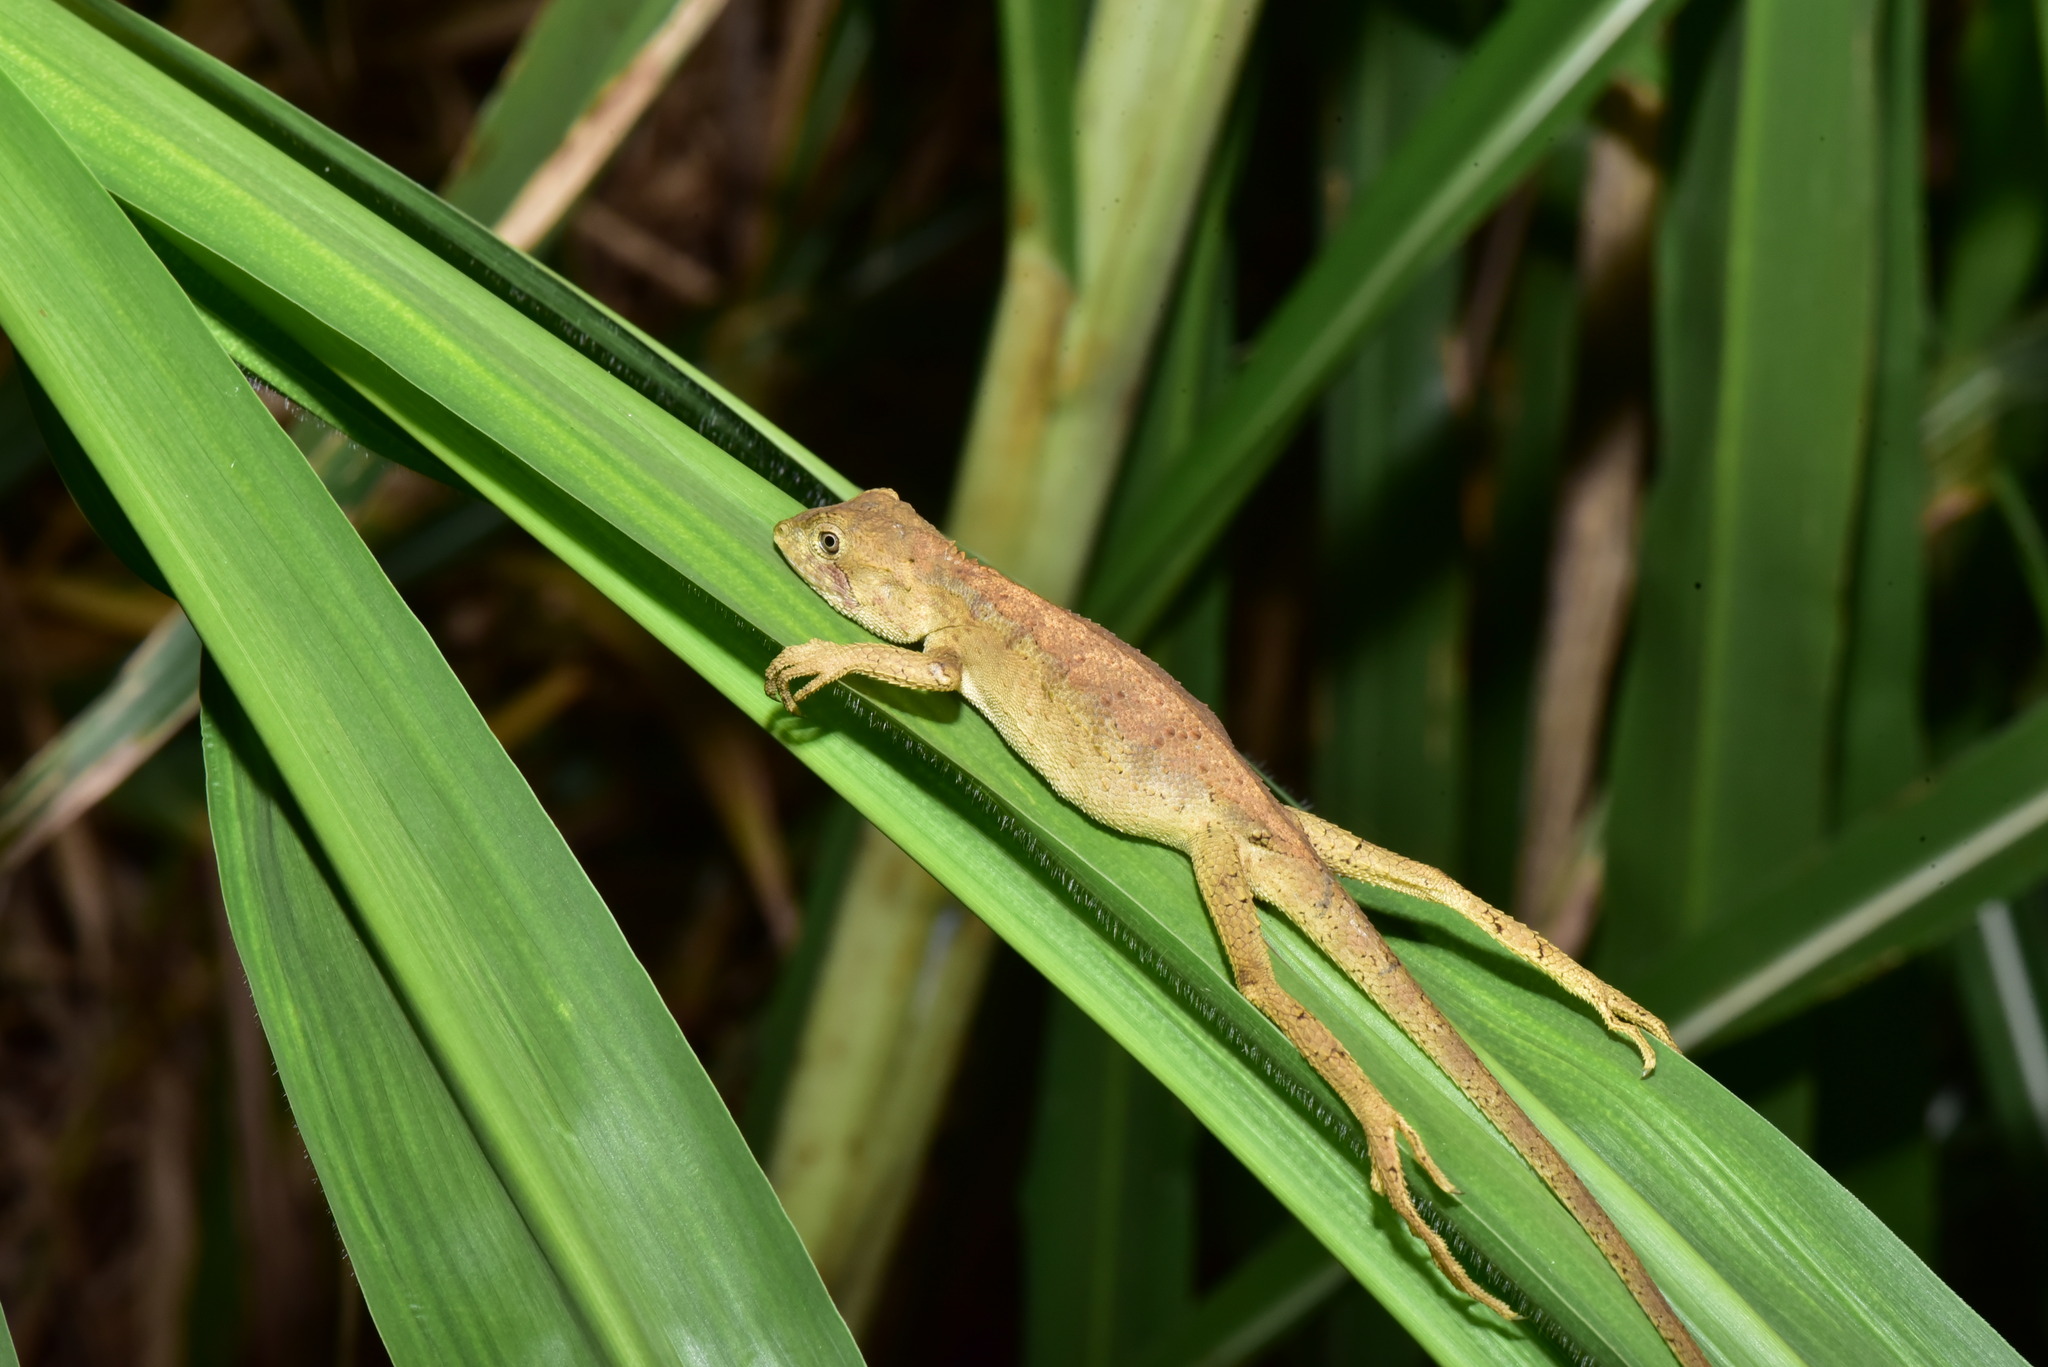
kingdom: Animalia
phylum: Chordata
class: Squamata
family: Agamidae
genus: Diploderma
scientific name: Diploderma swinhonis
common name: Taiwan japalure
